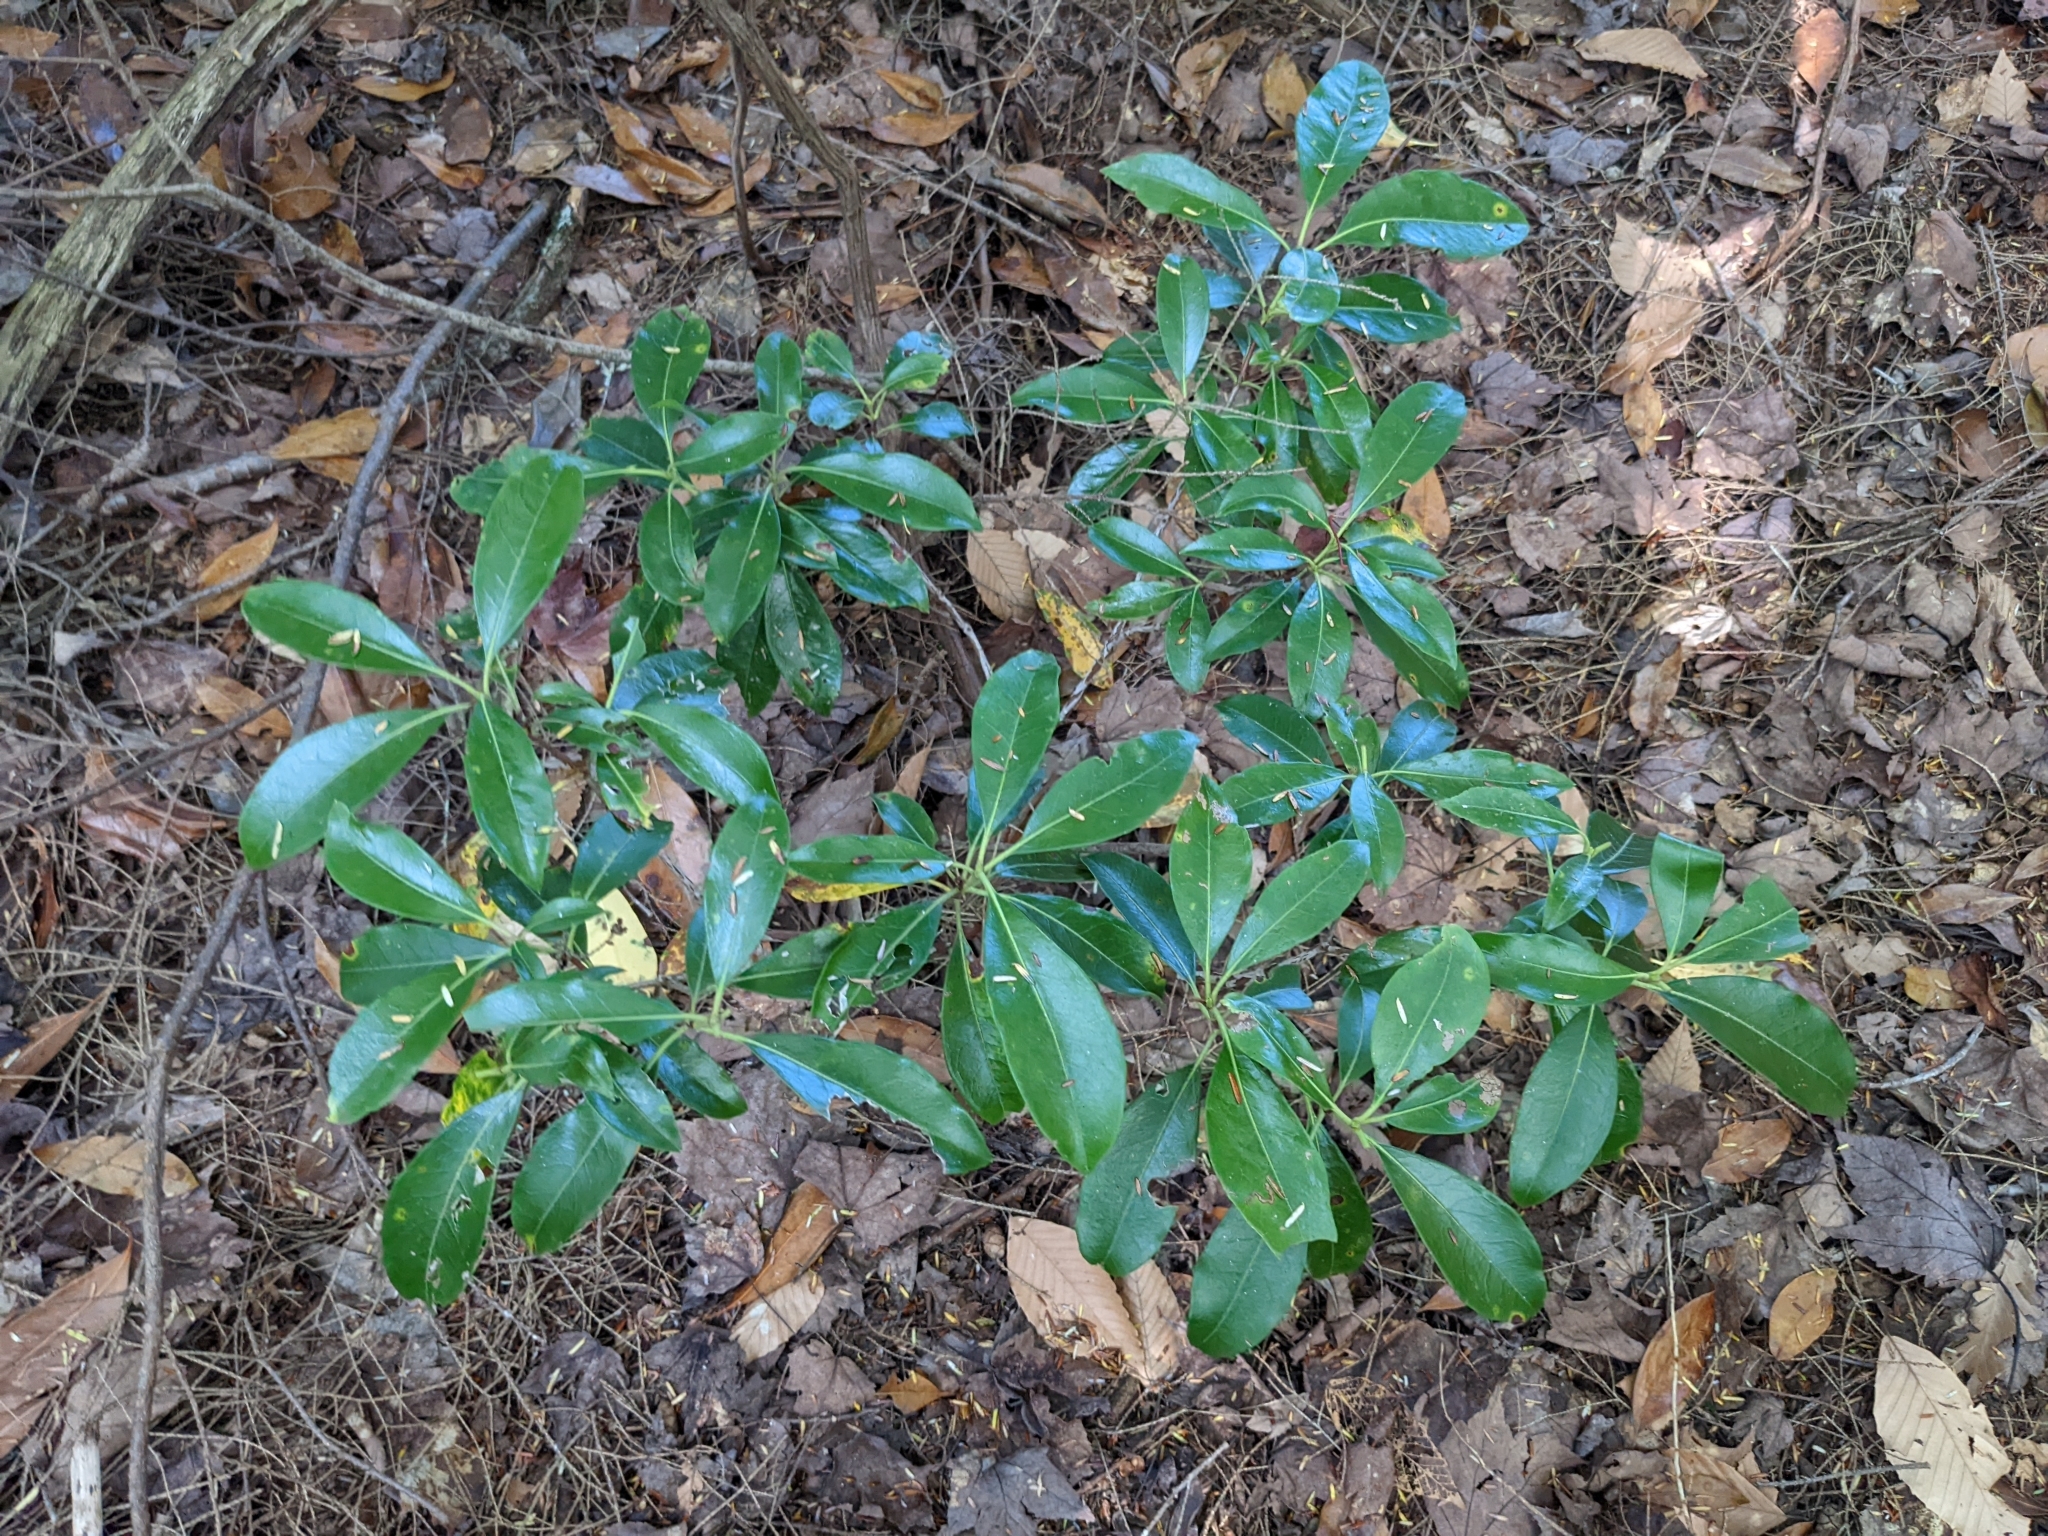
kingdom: Plantae
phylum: Tracheophyta
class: Magnoliopsida
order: Ericales
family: Ericaceae
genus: Kalmia
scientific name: Kalmia latifolia
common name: Mountain-laurel
